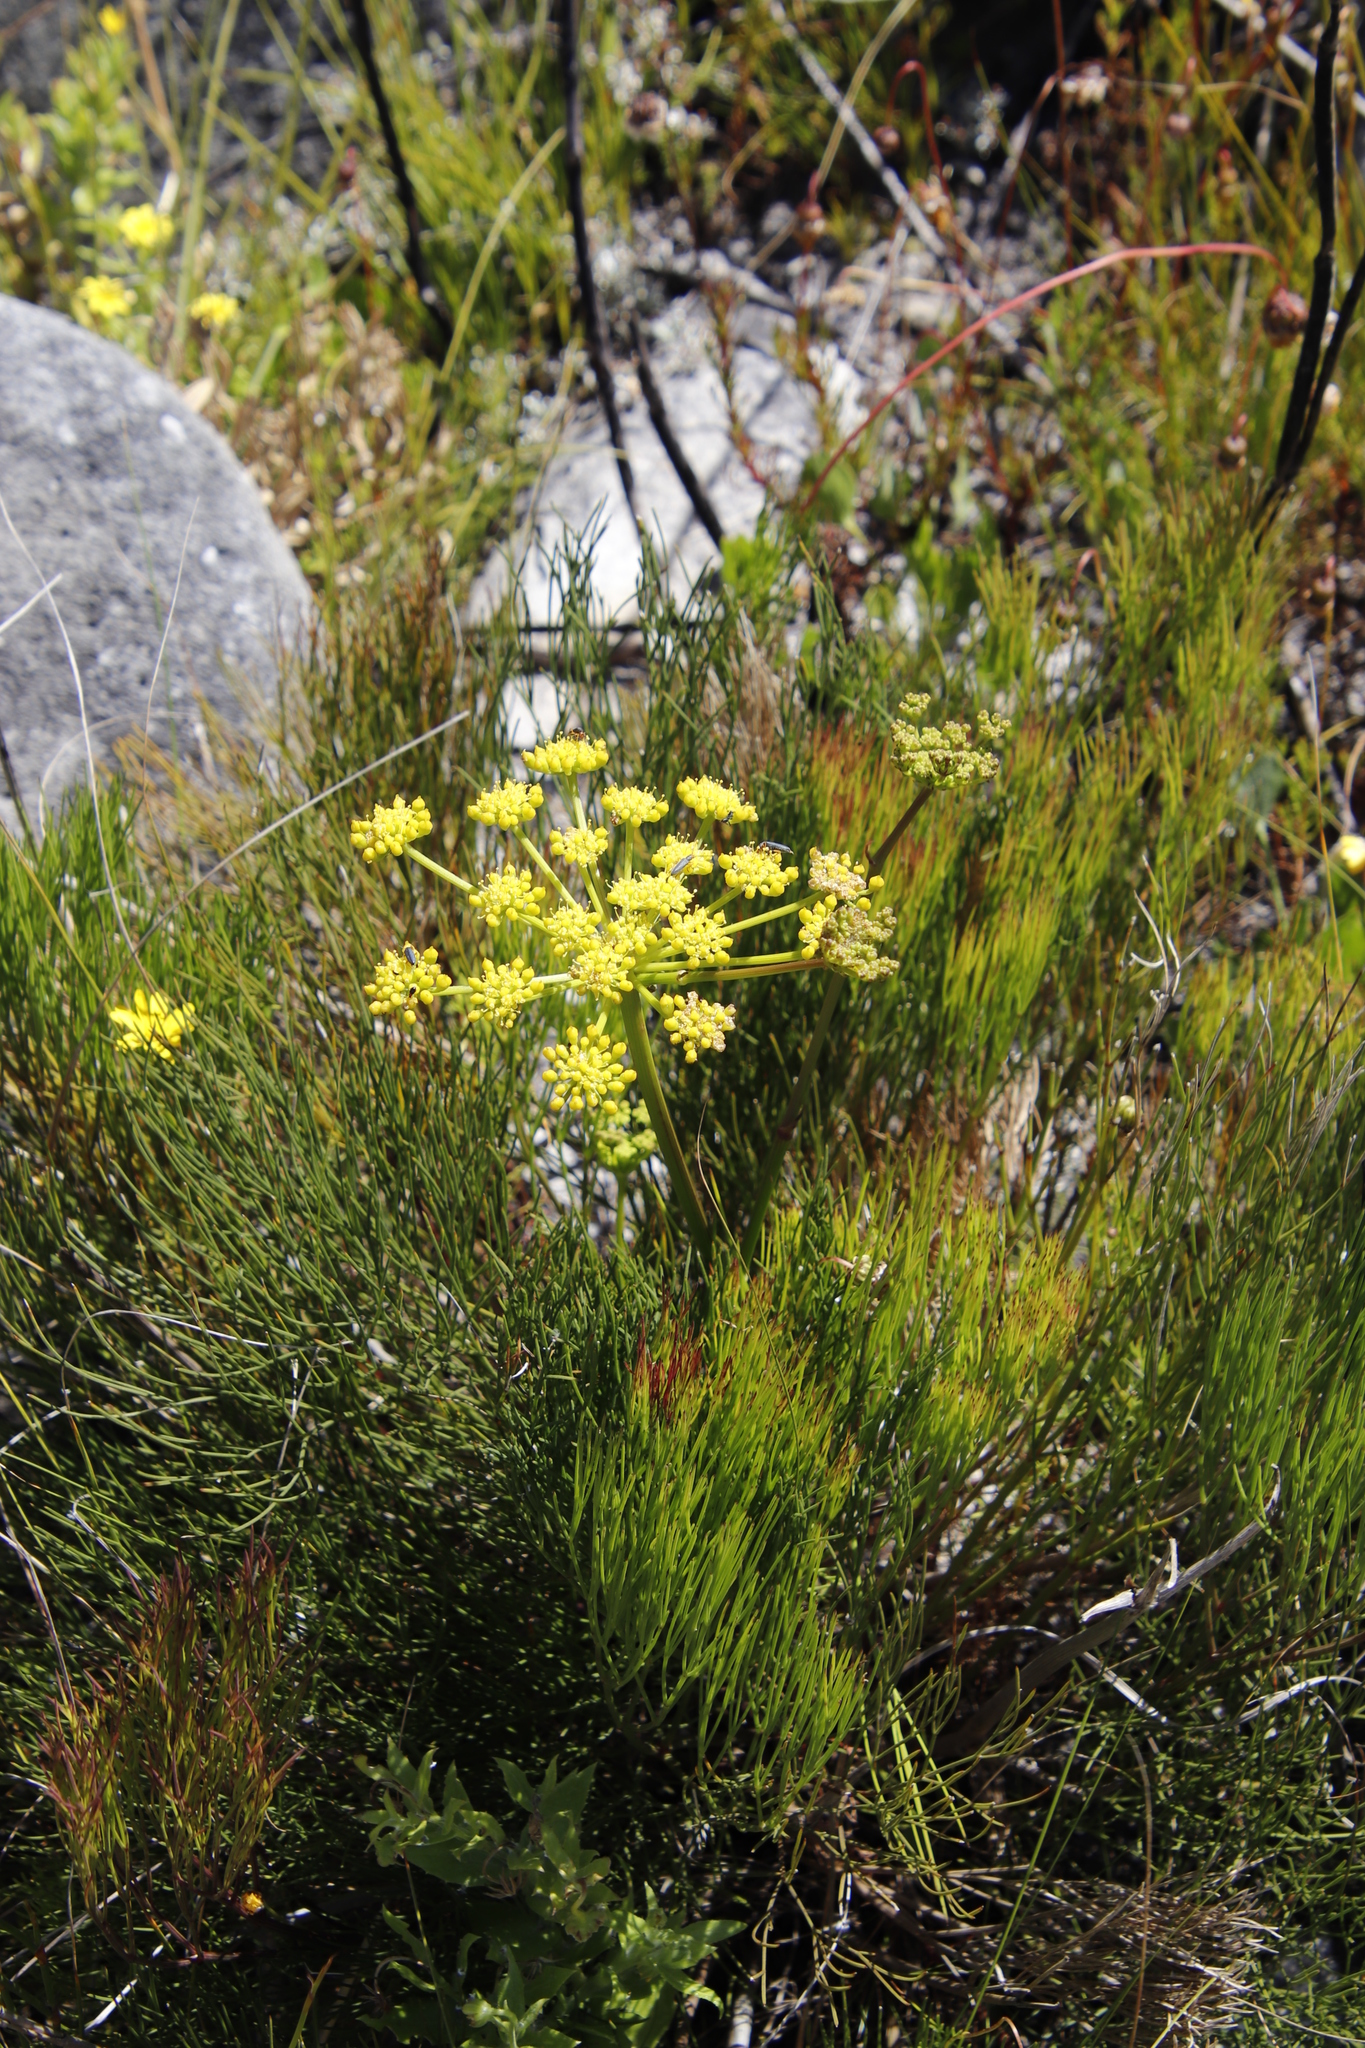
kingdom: Plantae
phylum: Tracheophyta
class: Magnoliopsida
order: Apiales
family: Apiaceae
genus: Nanobubon
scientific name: Nanobubon strictum
